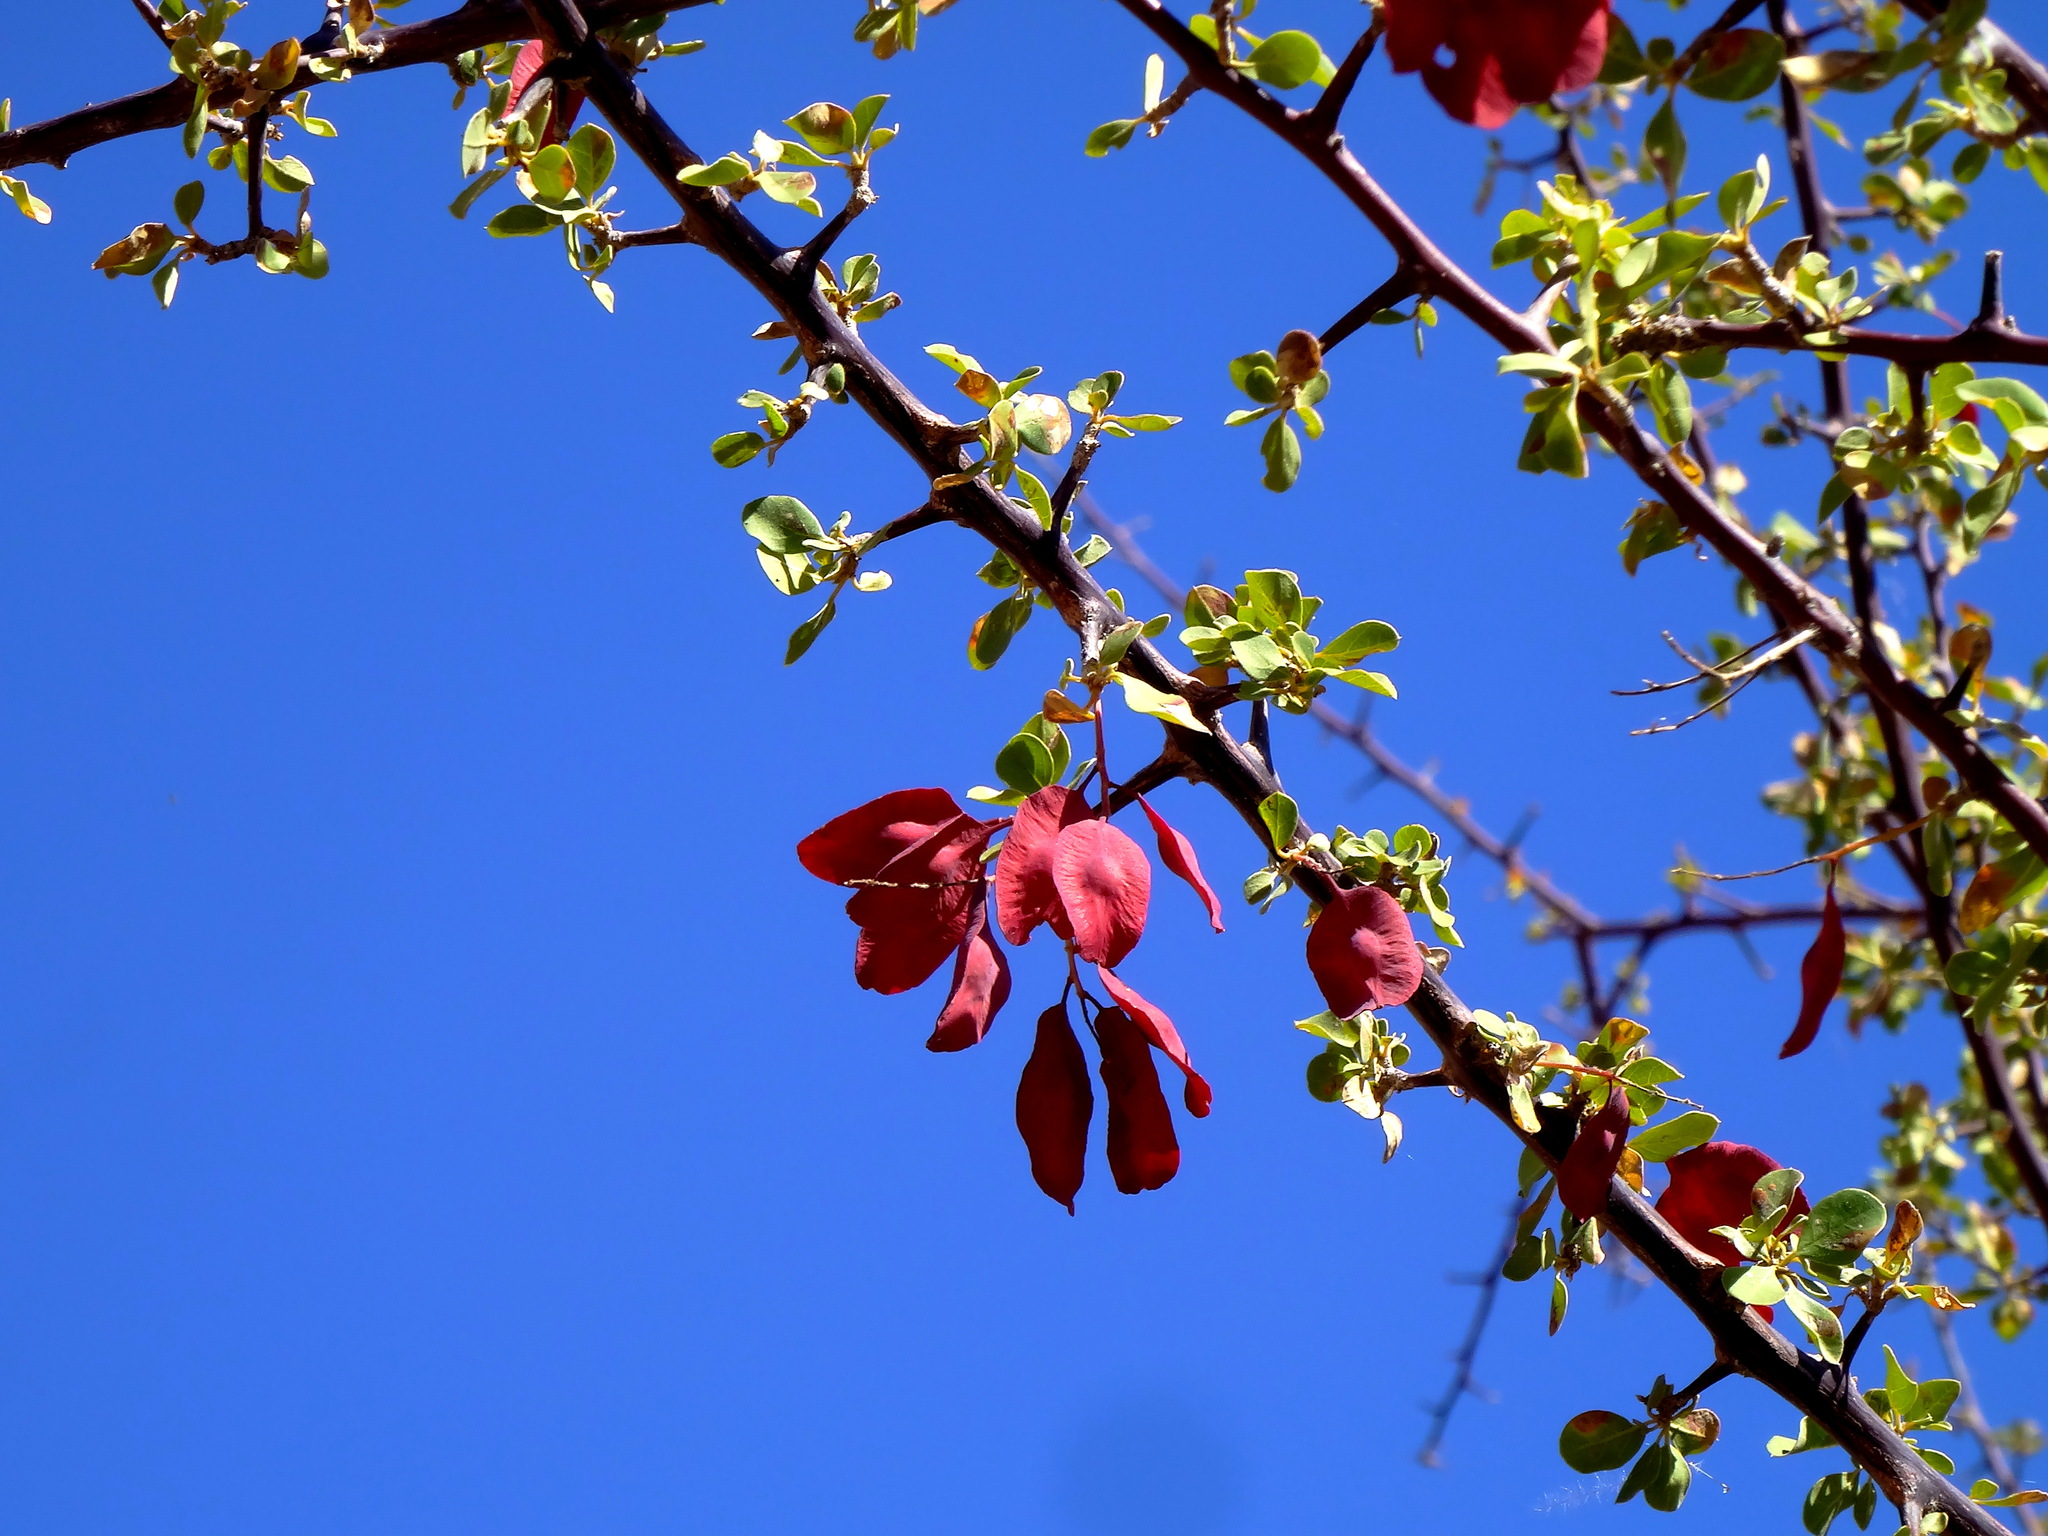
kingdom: Plantae
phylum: Tracheophyta
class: Magnoliopsida
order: Myrtales
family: Combretaceae
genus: Terminalia
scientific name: Terminalia prunioides
